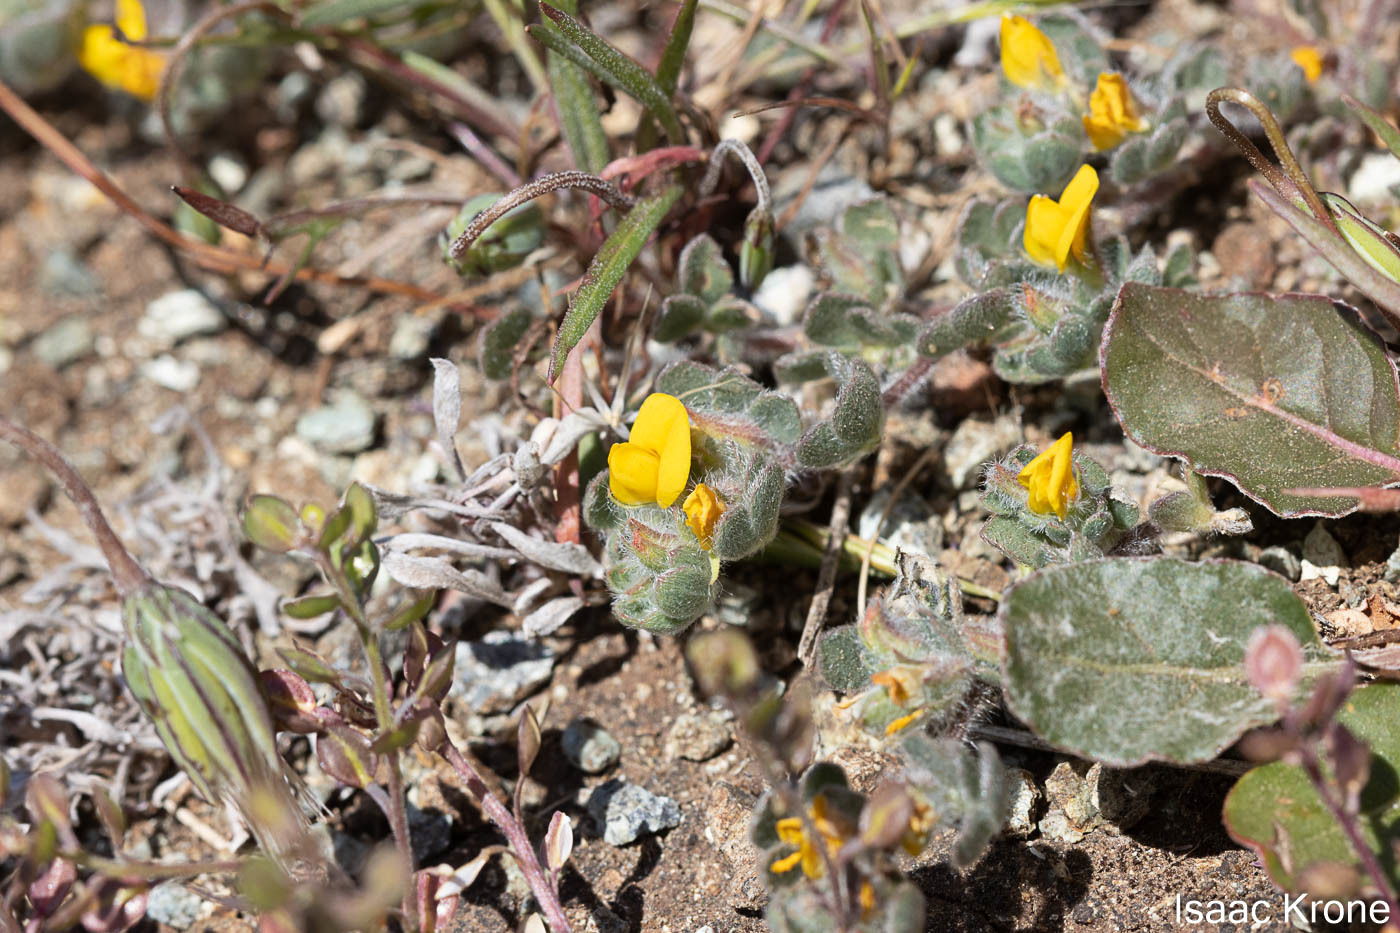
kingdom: Plantae
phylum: Tracheophyta
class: Magnoliopsida
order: Fabales
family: Fabaceae
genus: Acmispon
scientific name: Acmispon wrangelianus
